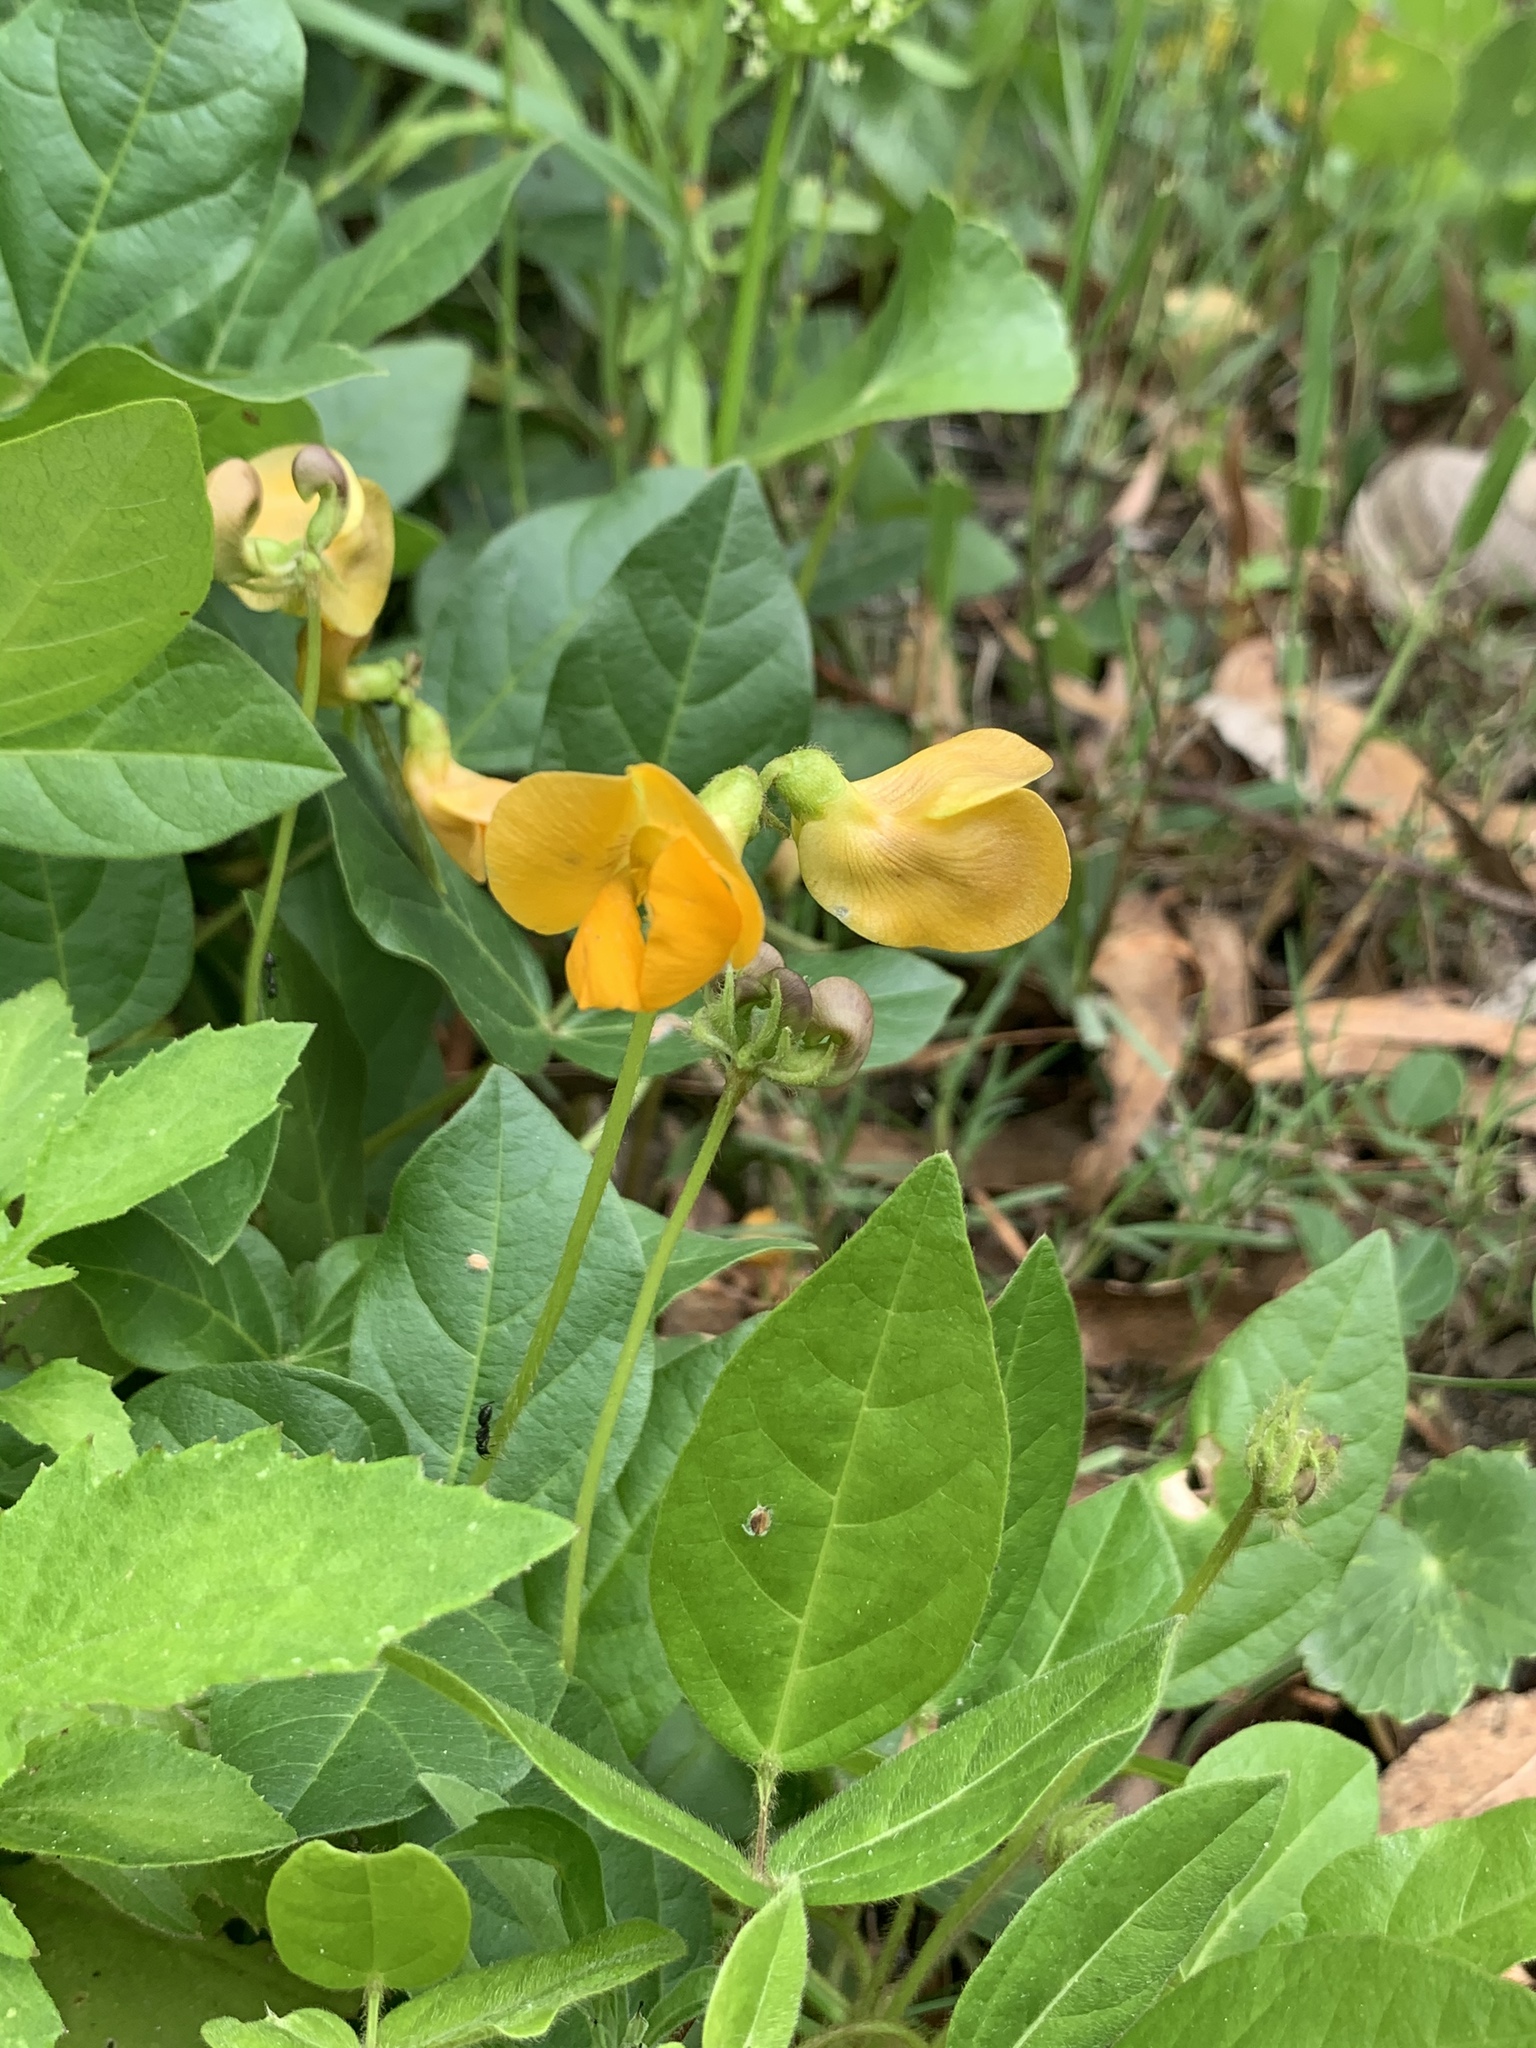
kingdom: Plantae
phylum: Tracheophyta
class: Magnoliopsida
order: Fabales
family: Fabaceae
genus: Vigna
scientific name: Vigna longifolia
